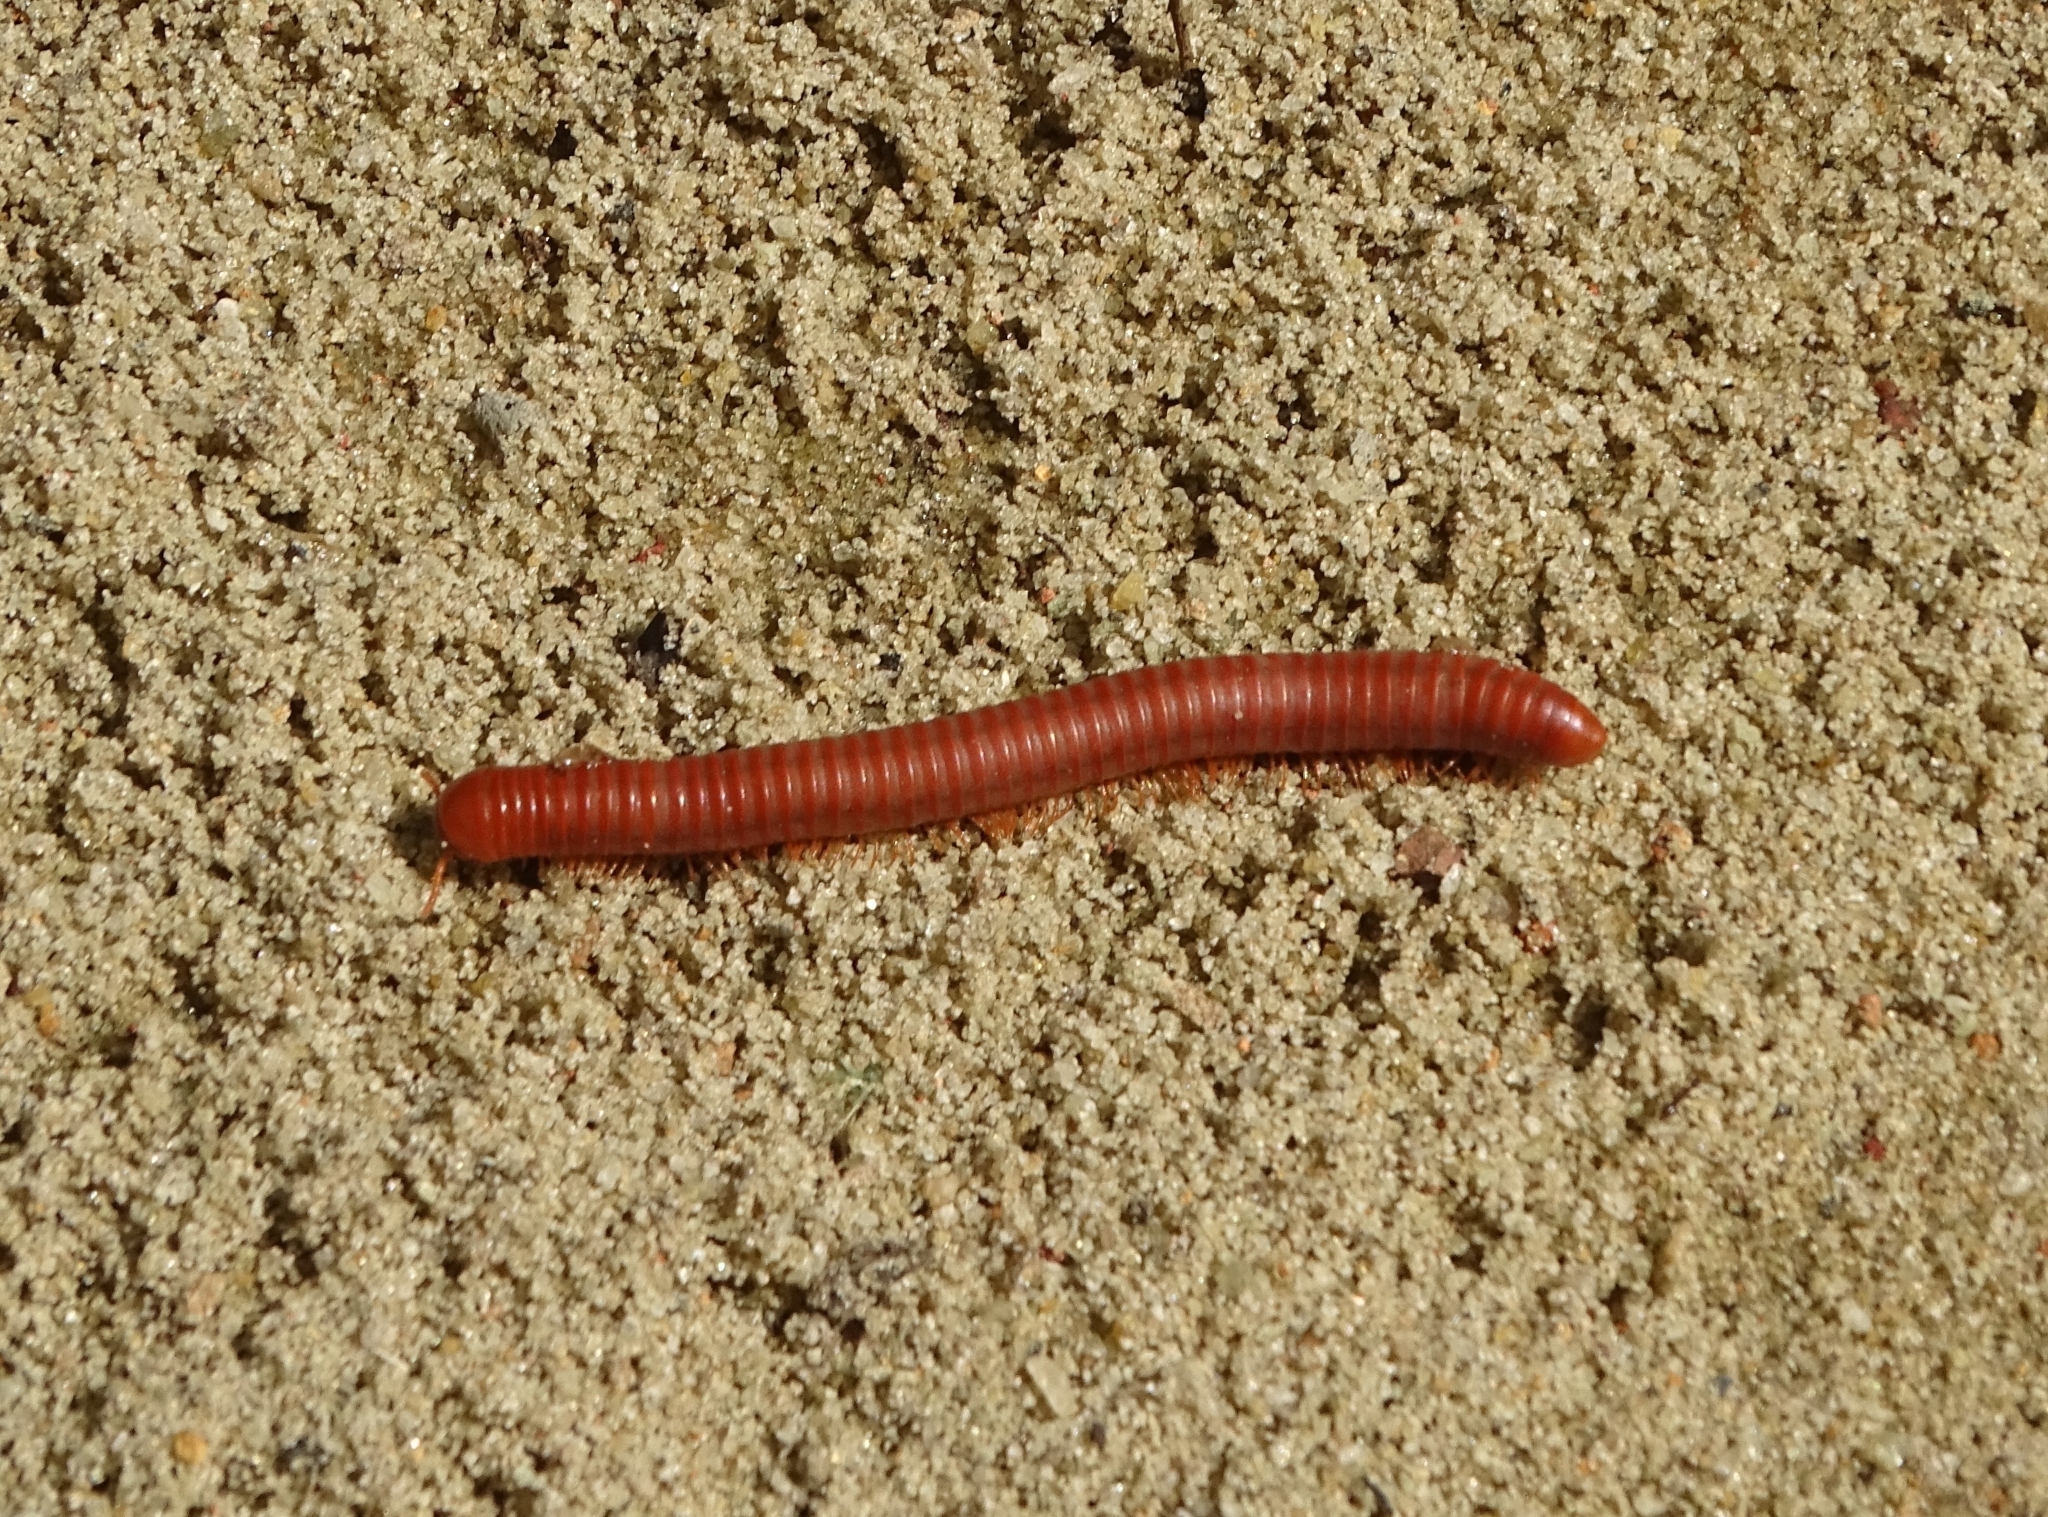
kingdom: Animalia
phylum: Arthropoda
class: Diplopoda
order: Spirobolida
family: Pachybolidae
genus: Trigoniulus
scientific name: Trigoniulus corallinus
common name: Millipede
